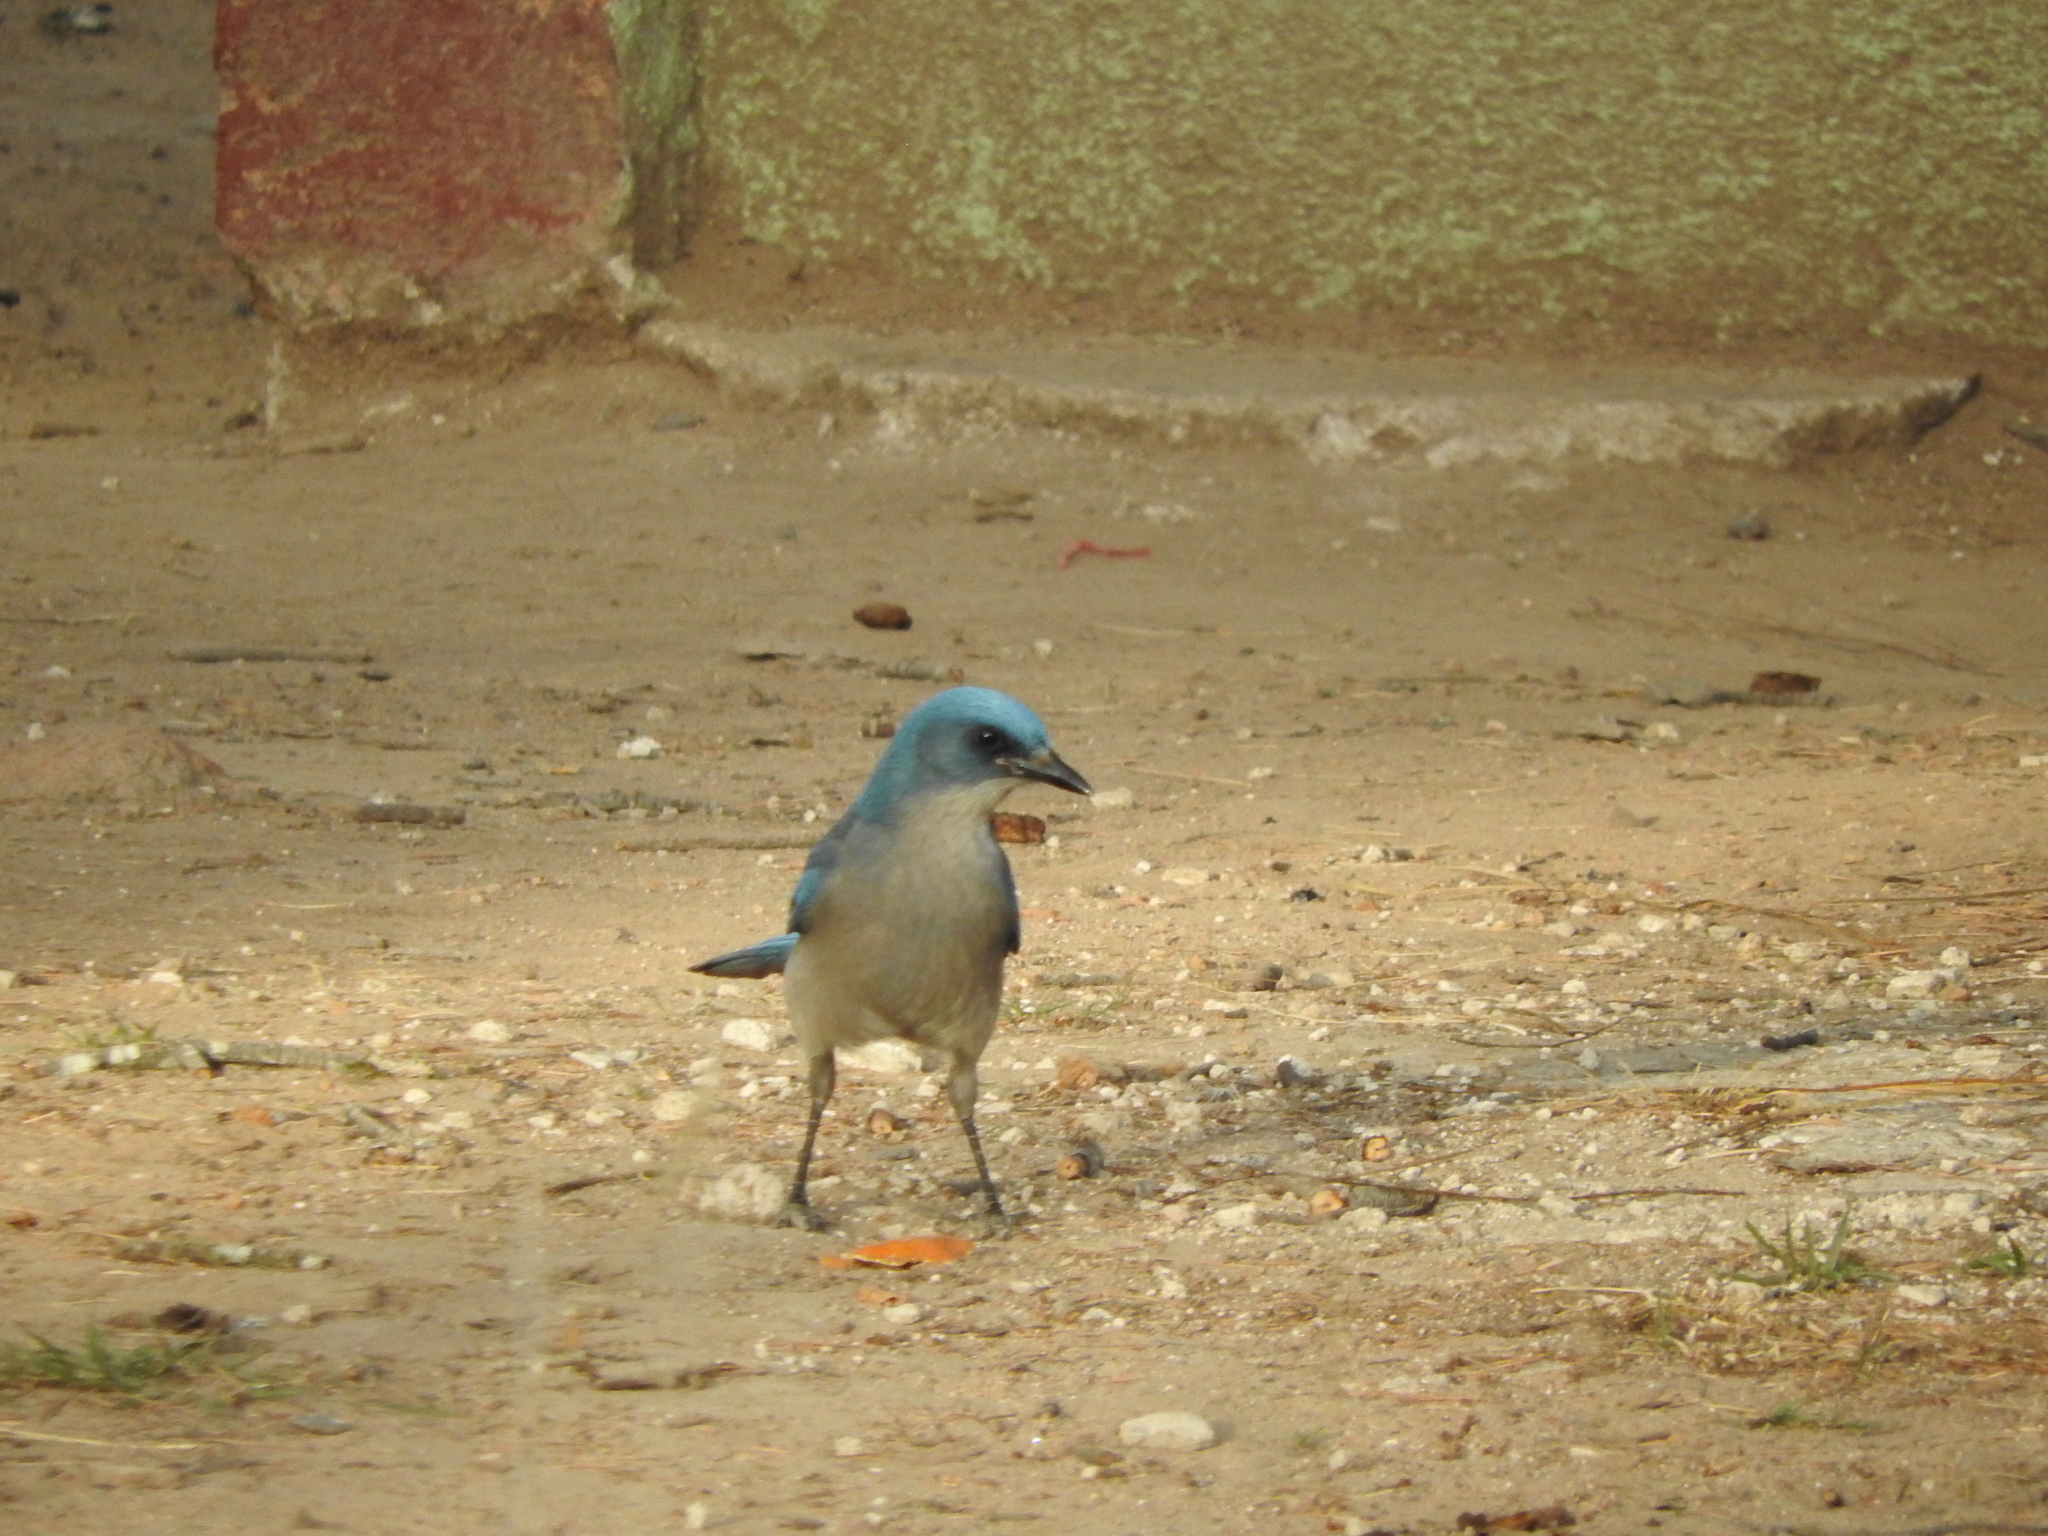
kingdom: Animalia
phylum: Chordata
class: Aves
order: Passeriformes
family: Corvidae
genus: Aphelocoma
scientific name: Aphelocoma wollweberi
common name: Mexican jay
